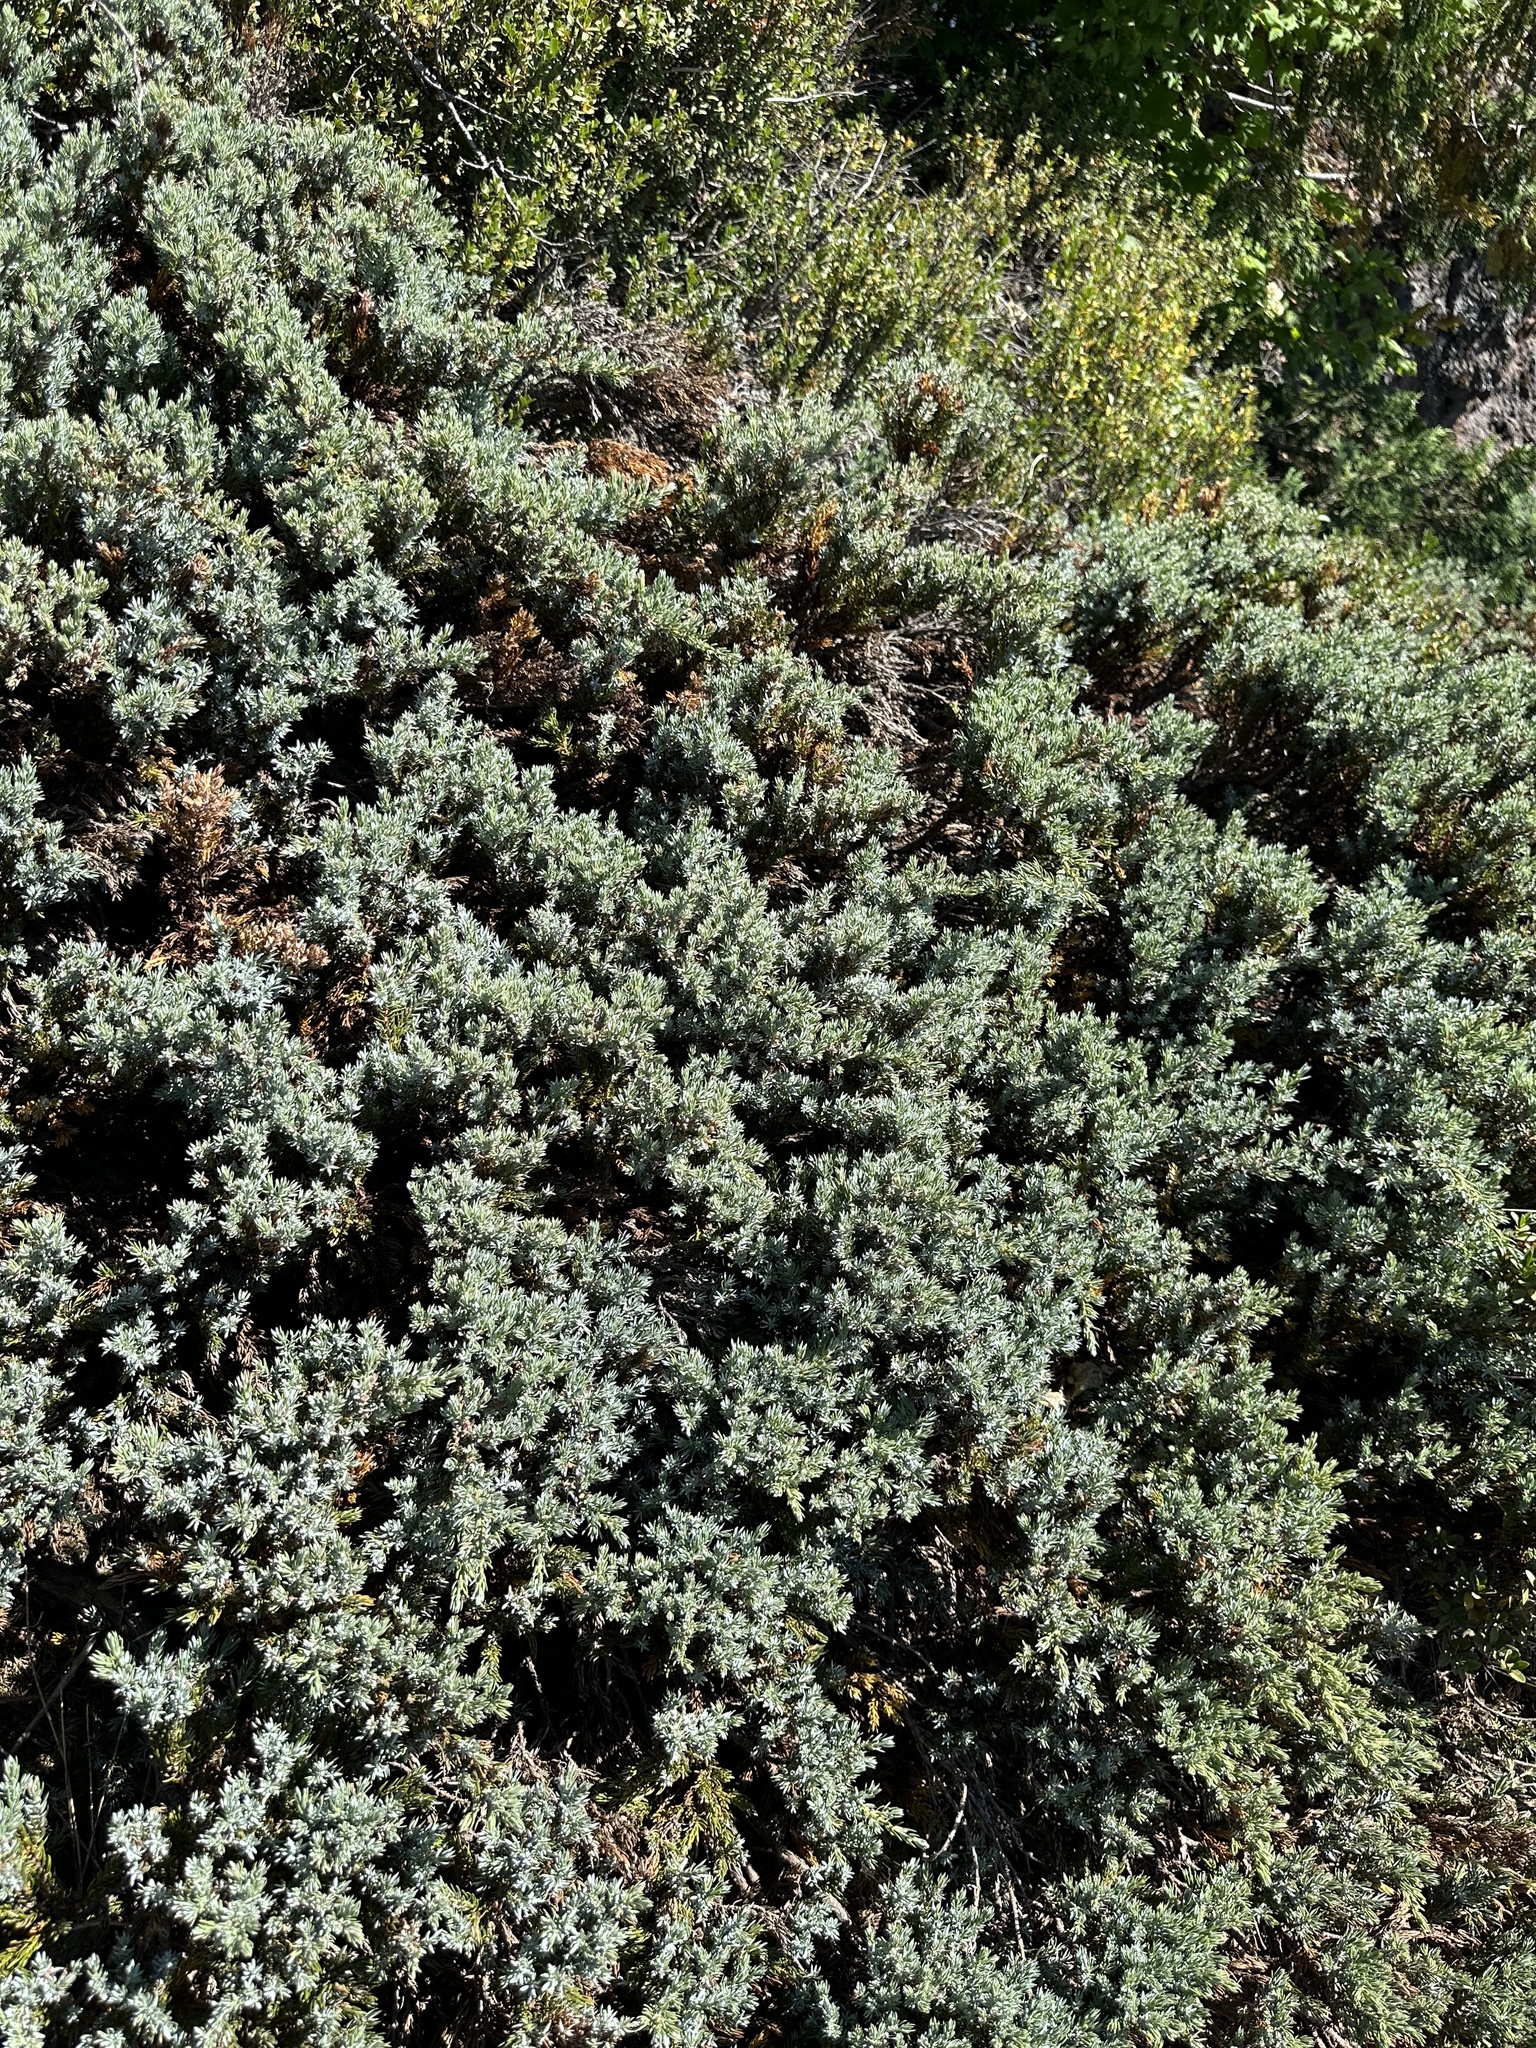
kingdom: Plantae
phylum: Tracheophyta
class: Pinopsida
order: Pinales
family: Cupressaceae
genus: Juniperus
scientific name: Juniperus communis
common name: Common juniper
